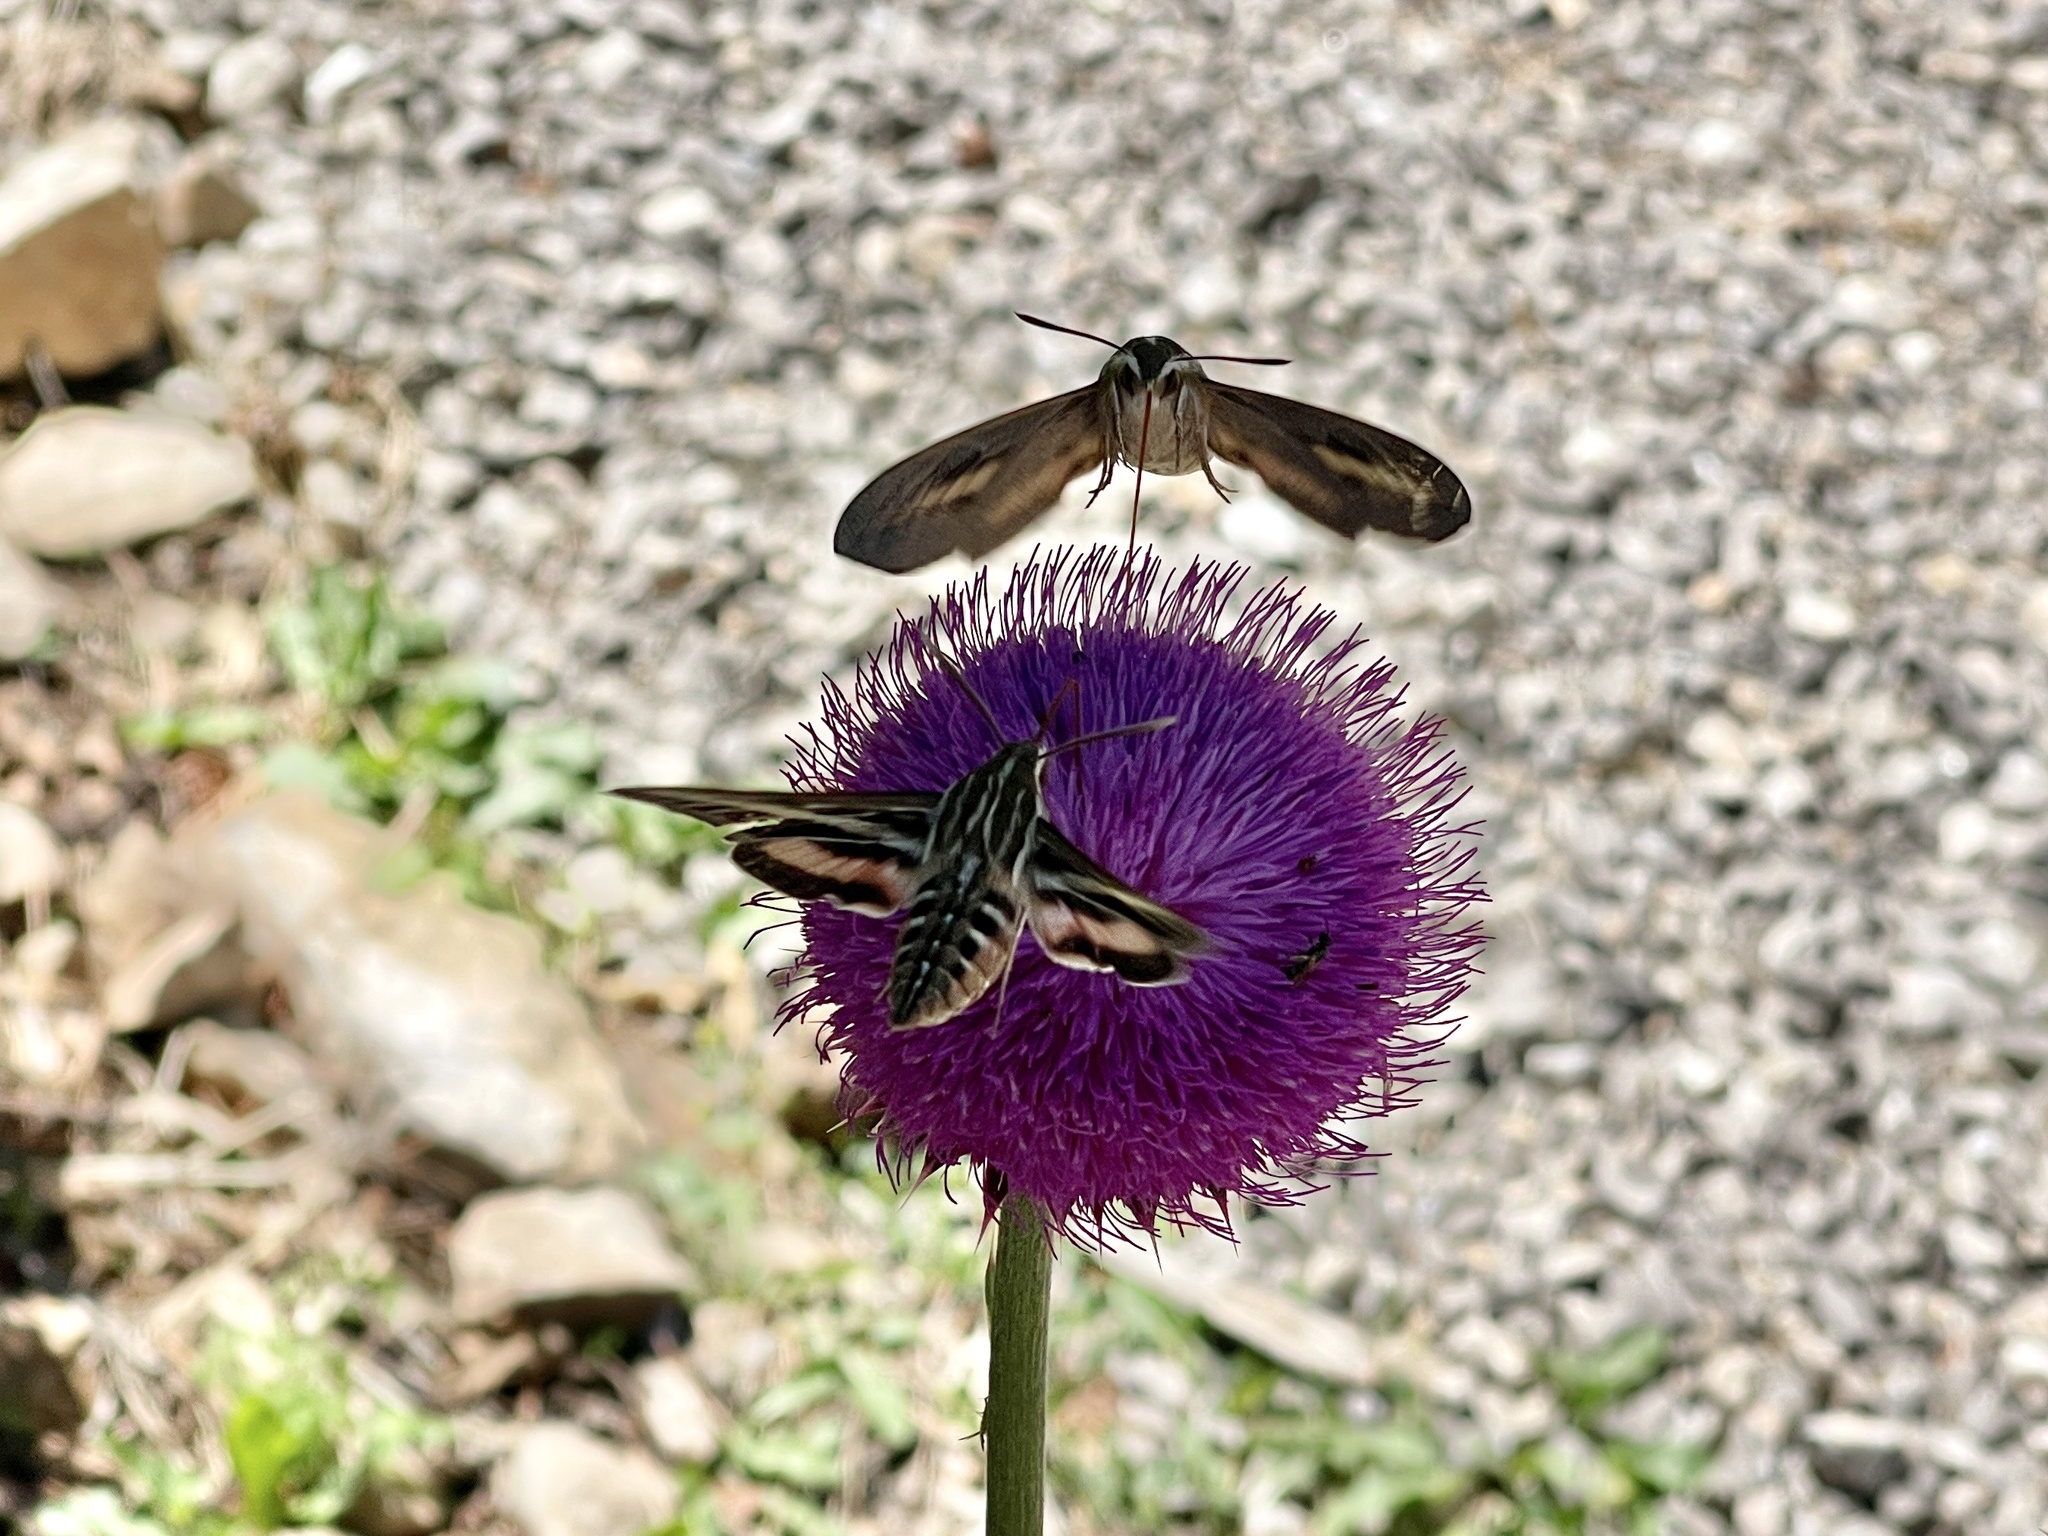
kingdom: Animalia
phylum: Arthropoda
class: Insecta
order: Lepidoptera
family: Sphingidae
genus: Hyles
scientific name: Hyles lineata
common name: White-lined sphinx
